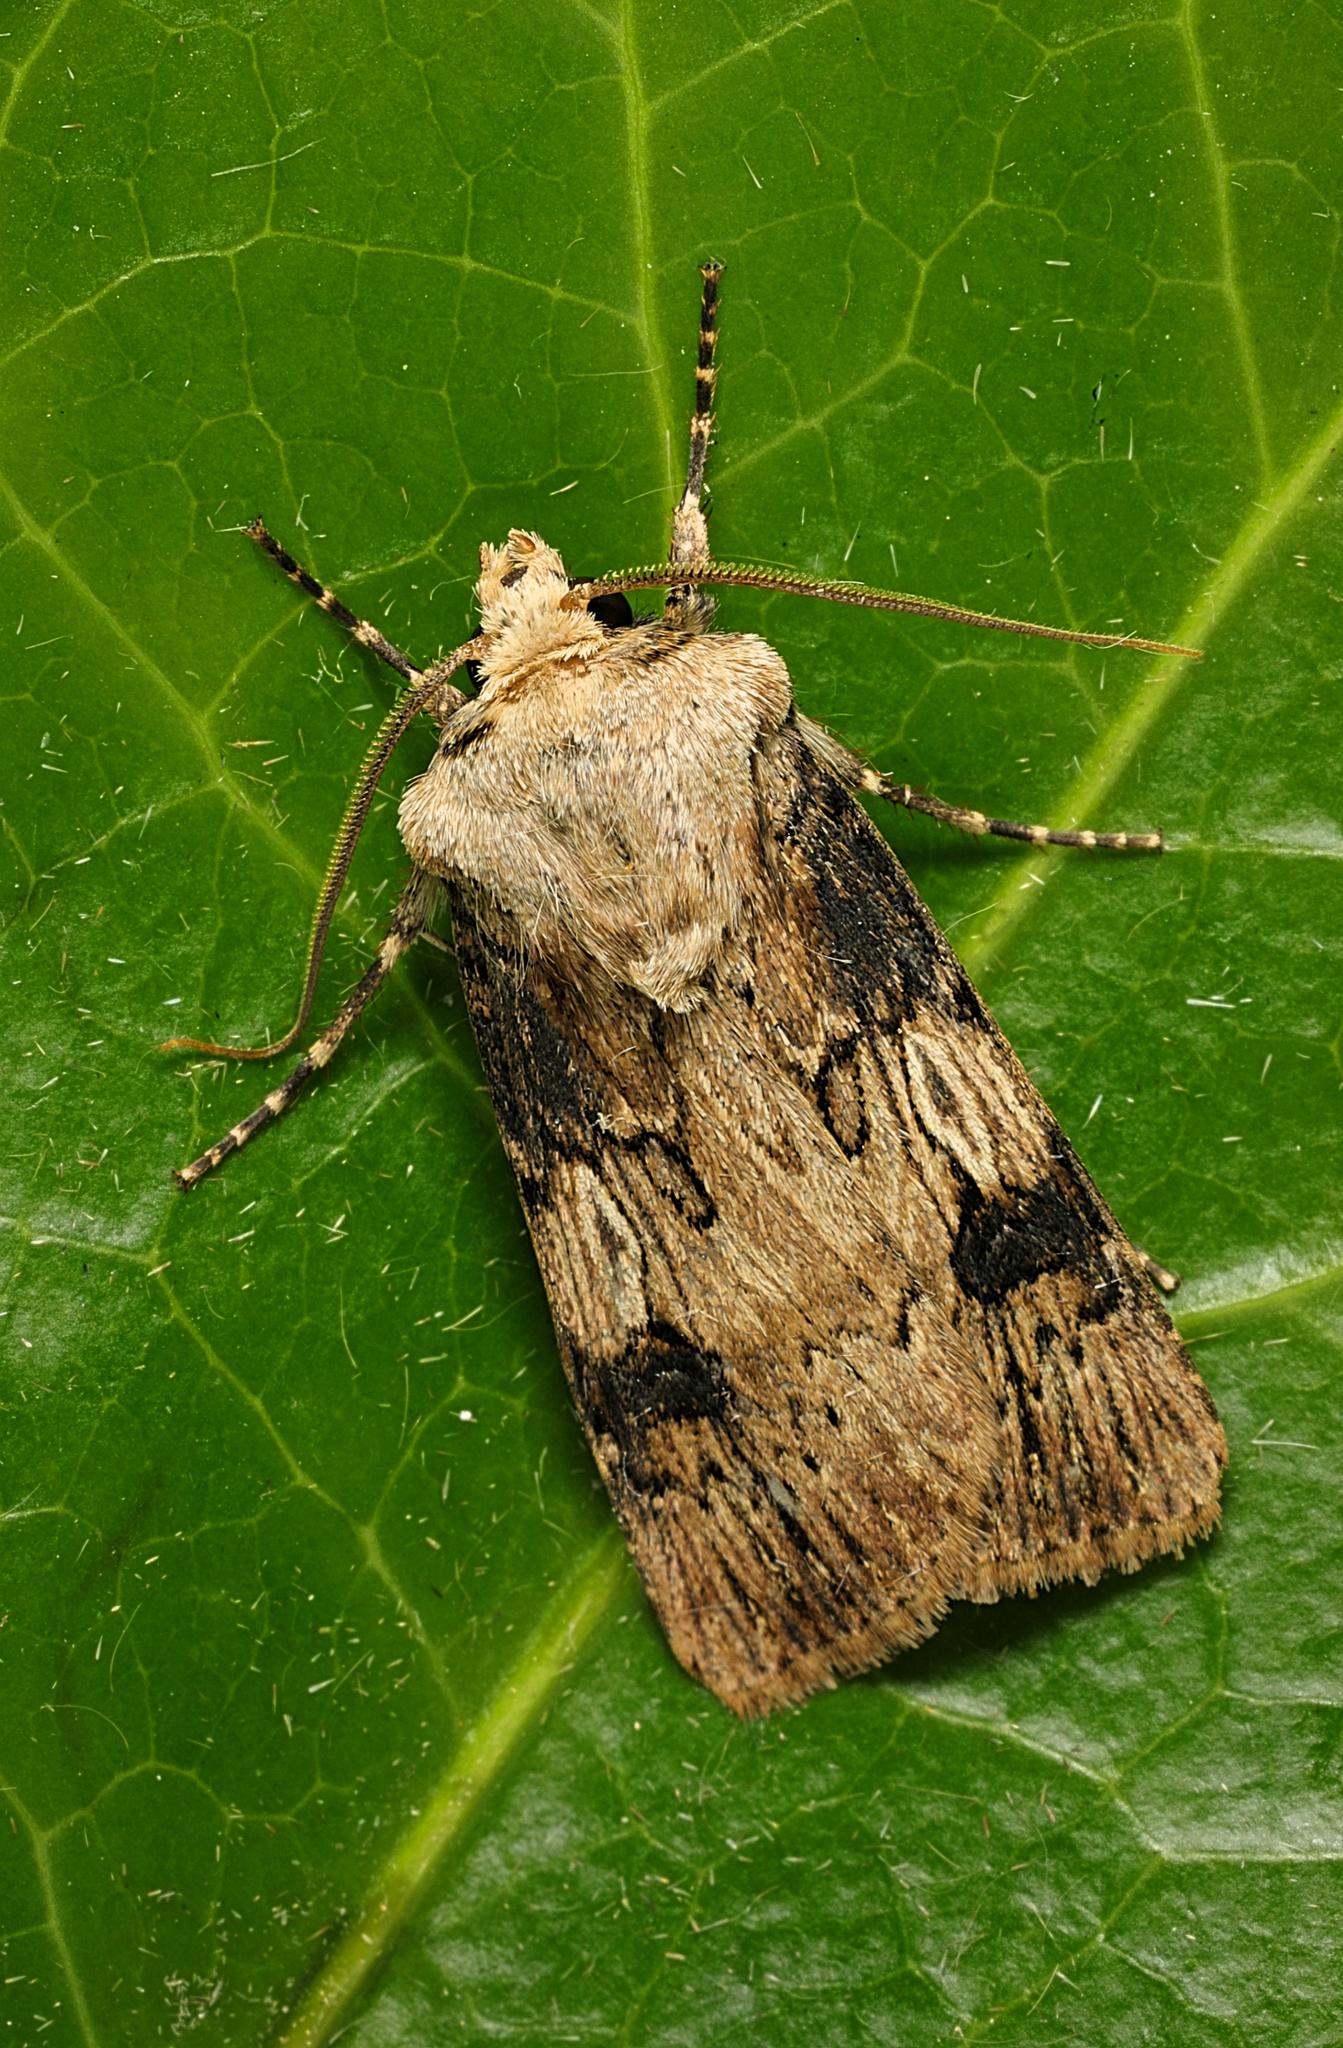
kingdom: Animalia
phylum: Arthropoda
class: Insecta
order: Lepidoptera
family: Noctuidae
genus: Agrotis
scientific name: Agrotis puta
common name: Shuttle-shaped dart
